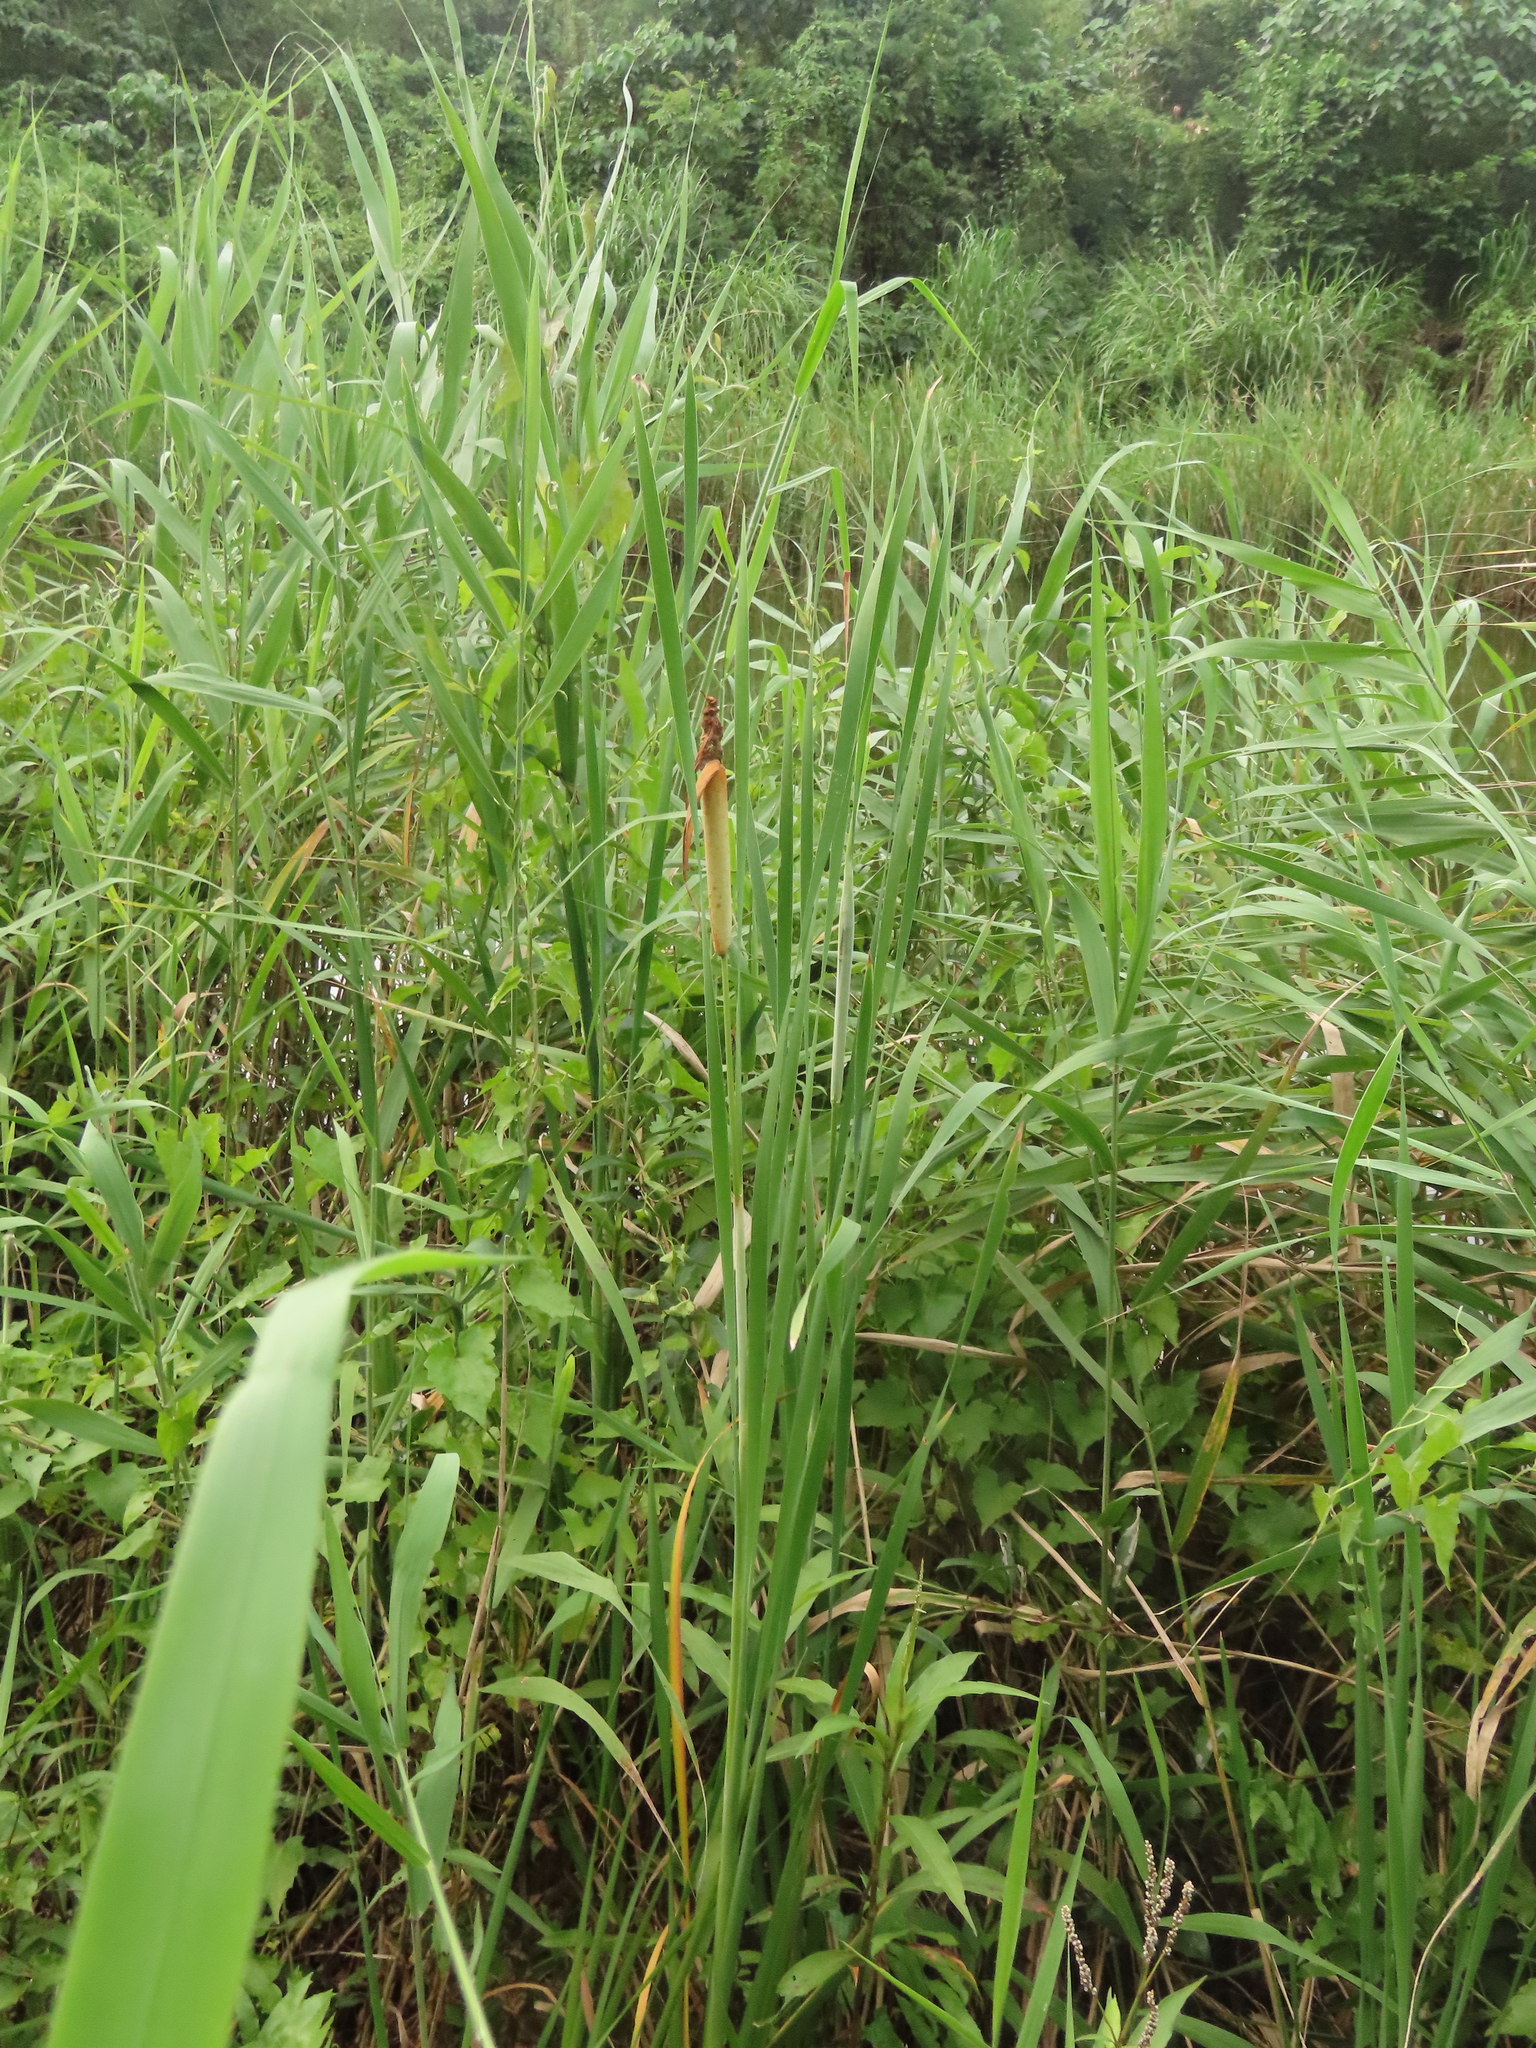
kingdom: Plantae
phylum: Tracheophyta
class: Liliopsida
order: Poales
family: Typhaceae
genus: Typha
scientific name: Typha orientalis
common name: Bullrush
